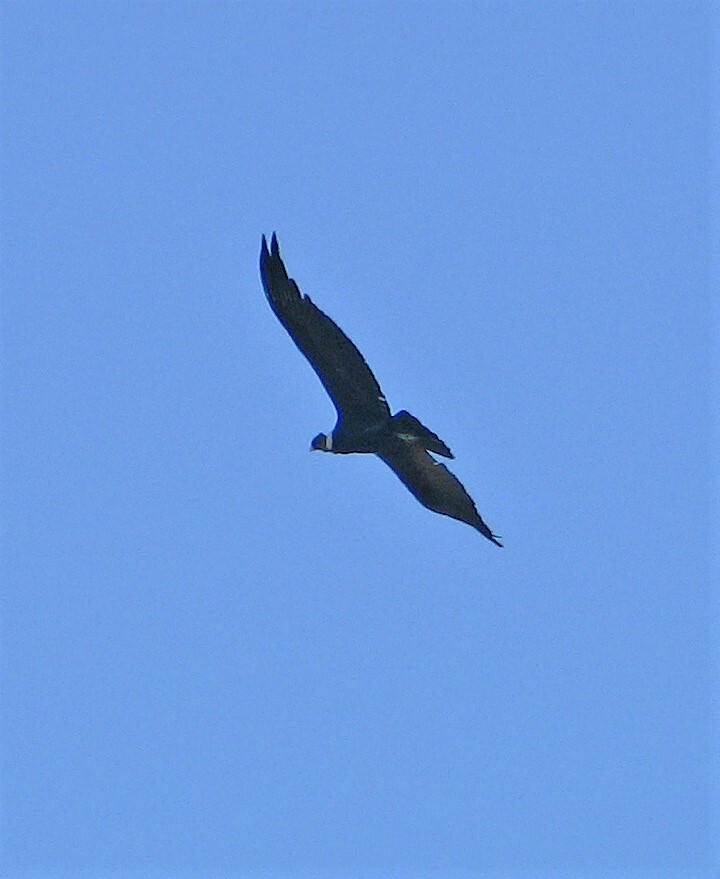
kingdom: Animalia
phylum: Chordata
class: Aves
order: Accipitriformes
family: Cathartidae
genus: Vultur
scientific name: Vultur gryphus
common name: Andean condor
